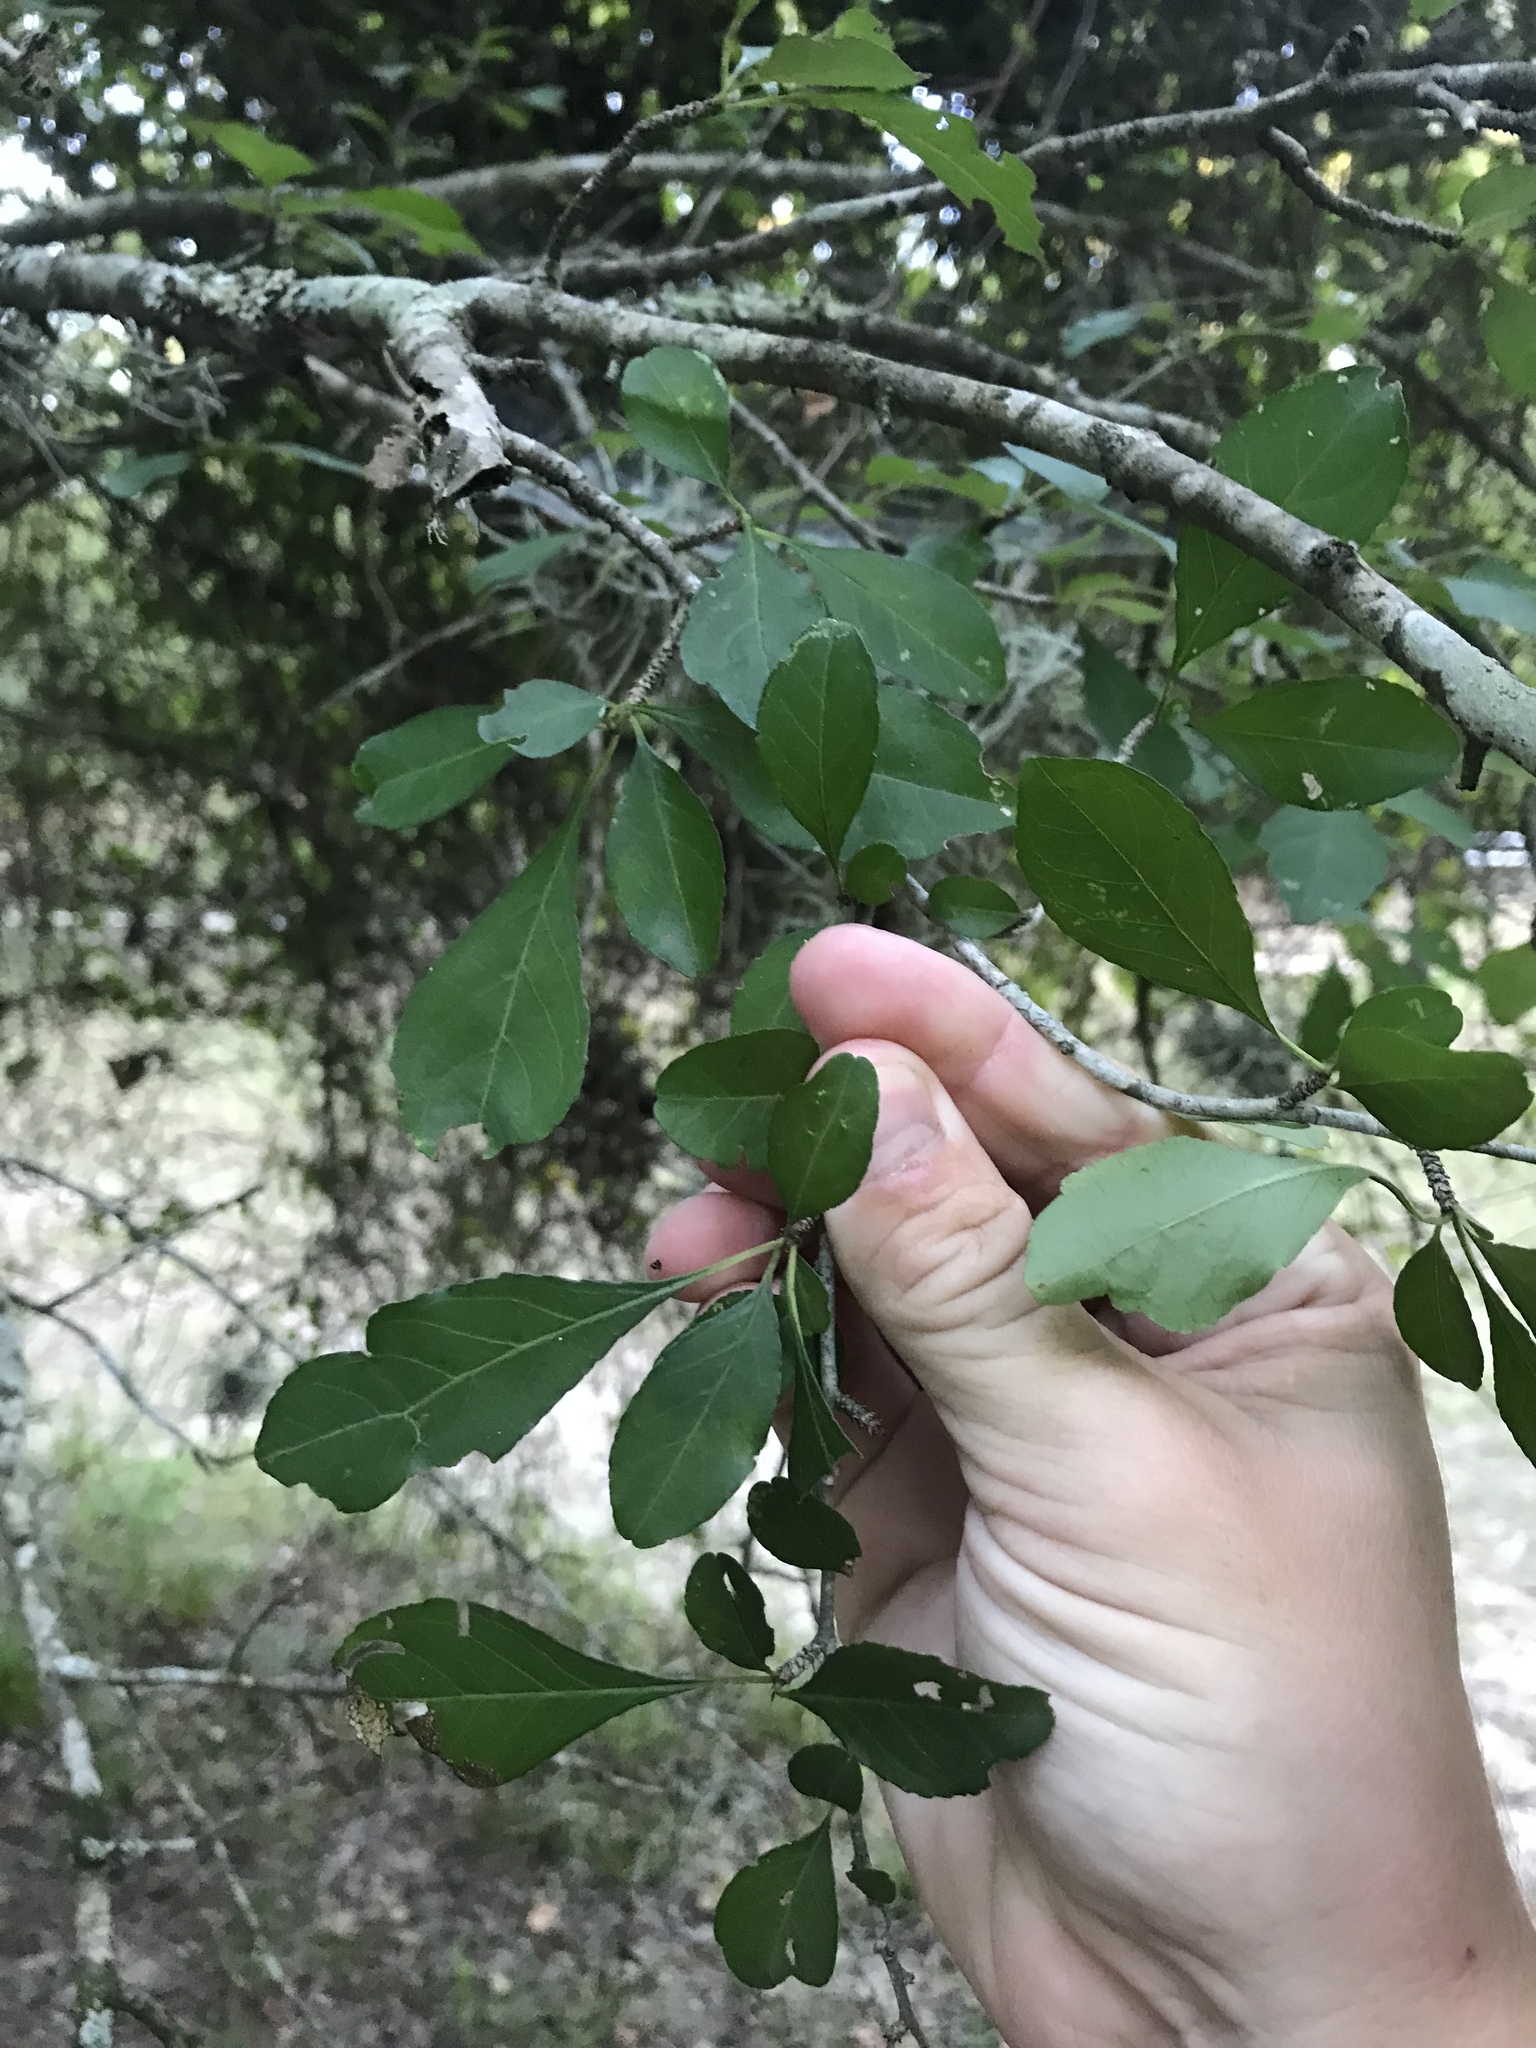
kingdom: Plantae
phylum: Tracheophyta
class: Magnoliopsida
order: Aquifoliales
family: Aquifoliaceae
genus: Ilex
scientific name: Ilex decidua
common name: Possum-haw
